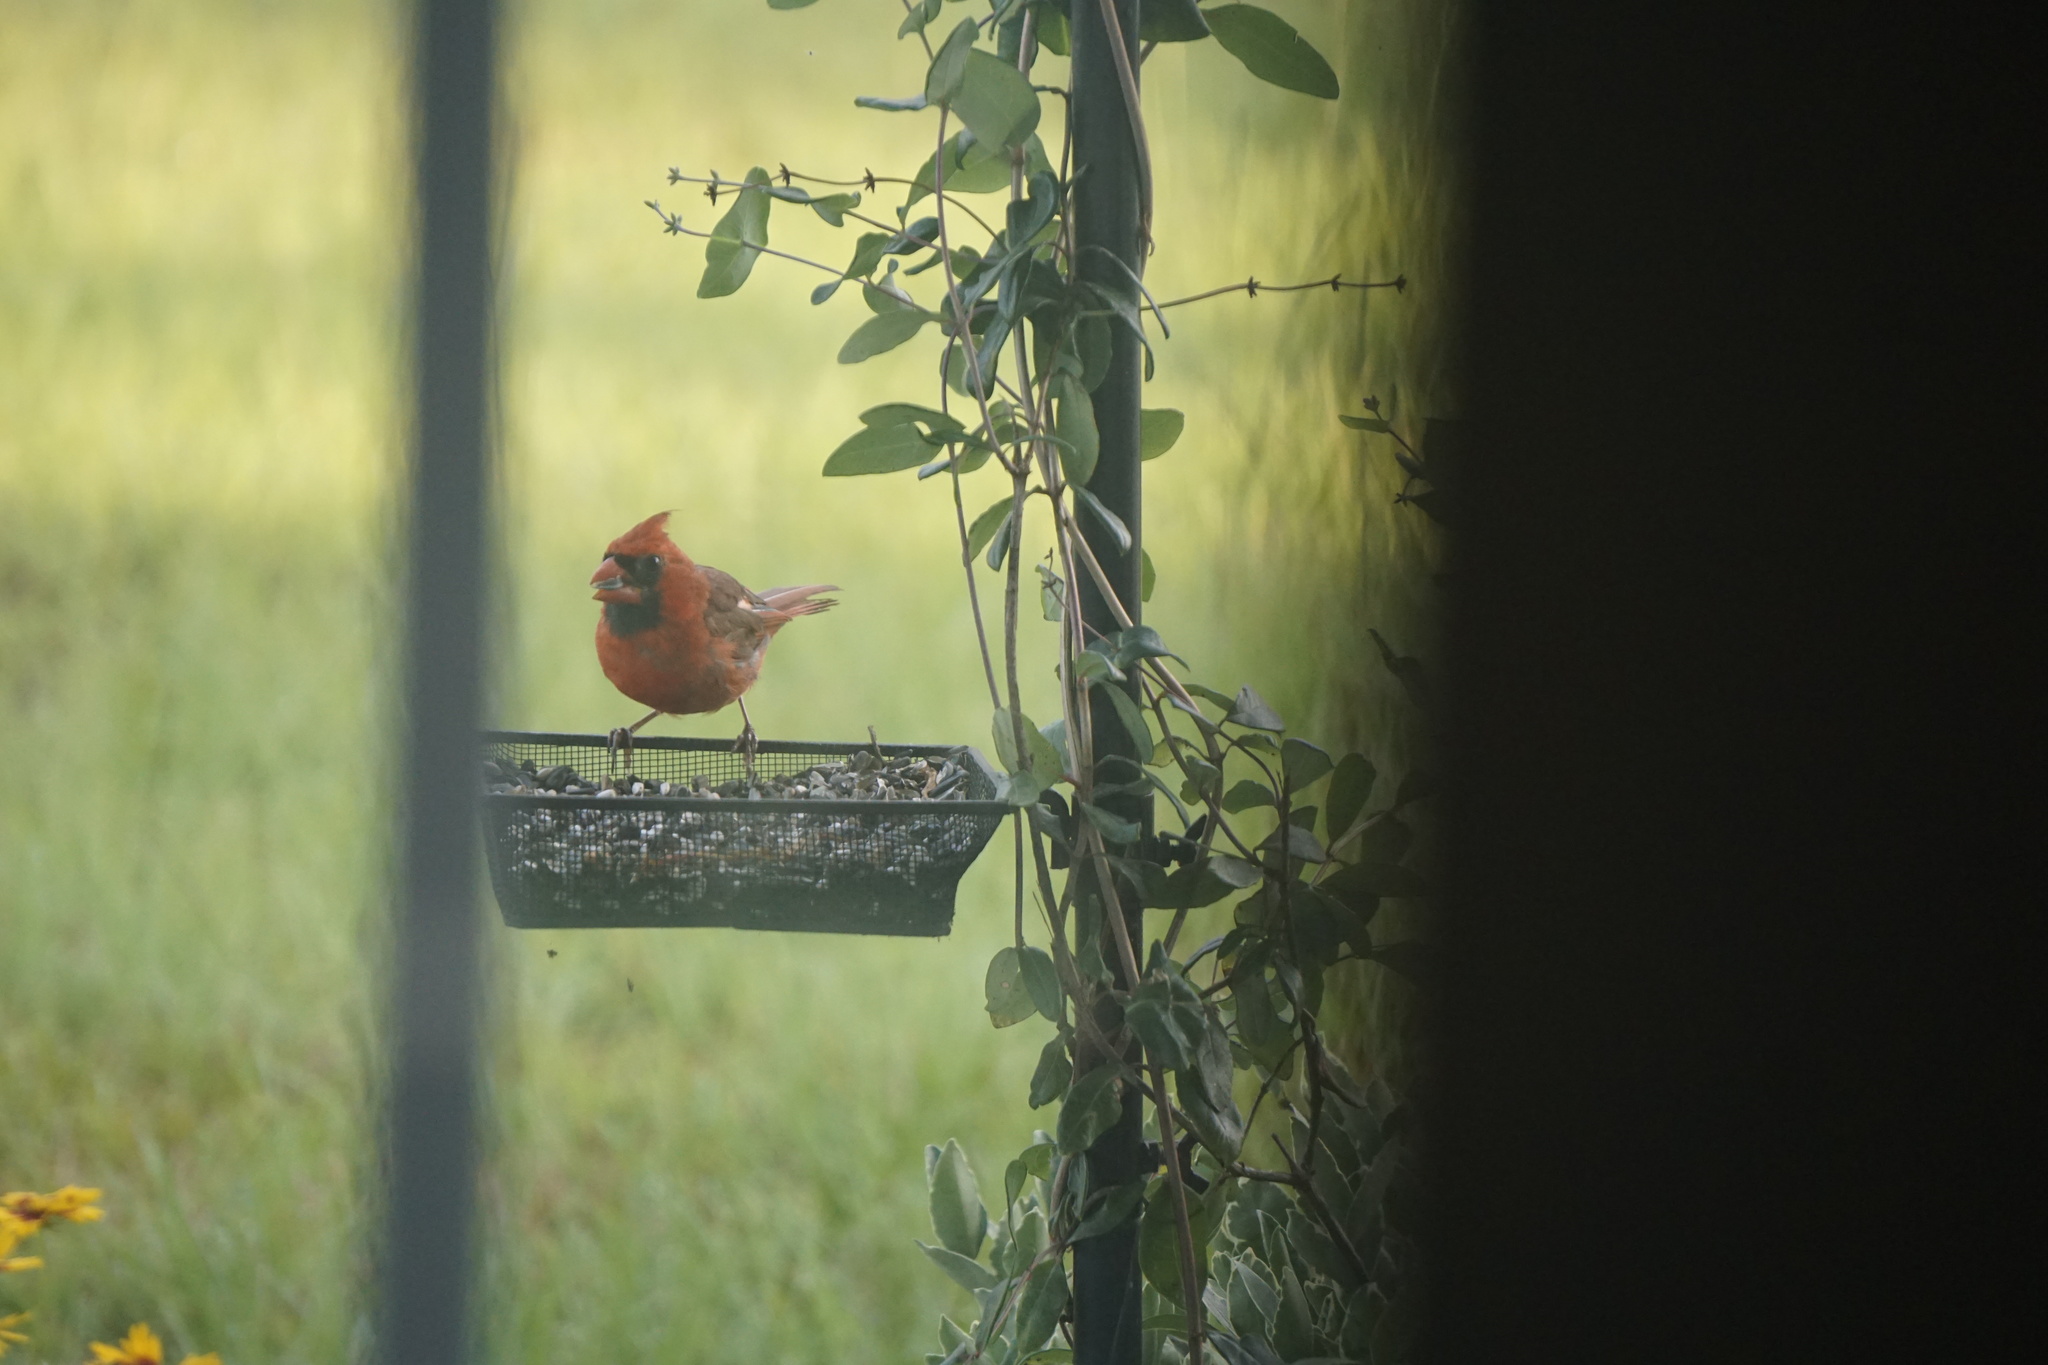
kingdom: Animalia
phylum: Chordata
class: Aves
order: Passeriformes
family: Cardinalidae
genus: Cardinalis
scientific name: Cardinalis cardinalis
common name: Northern cardinal
